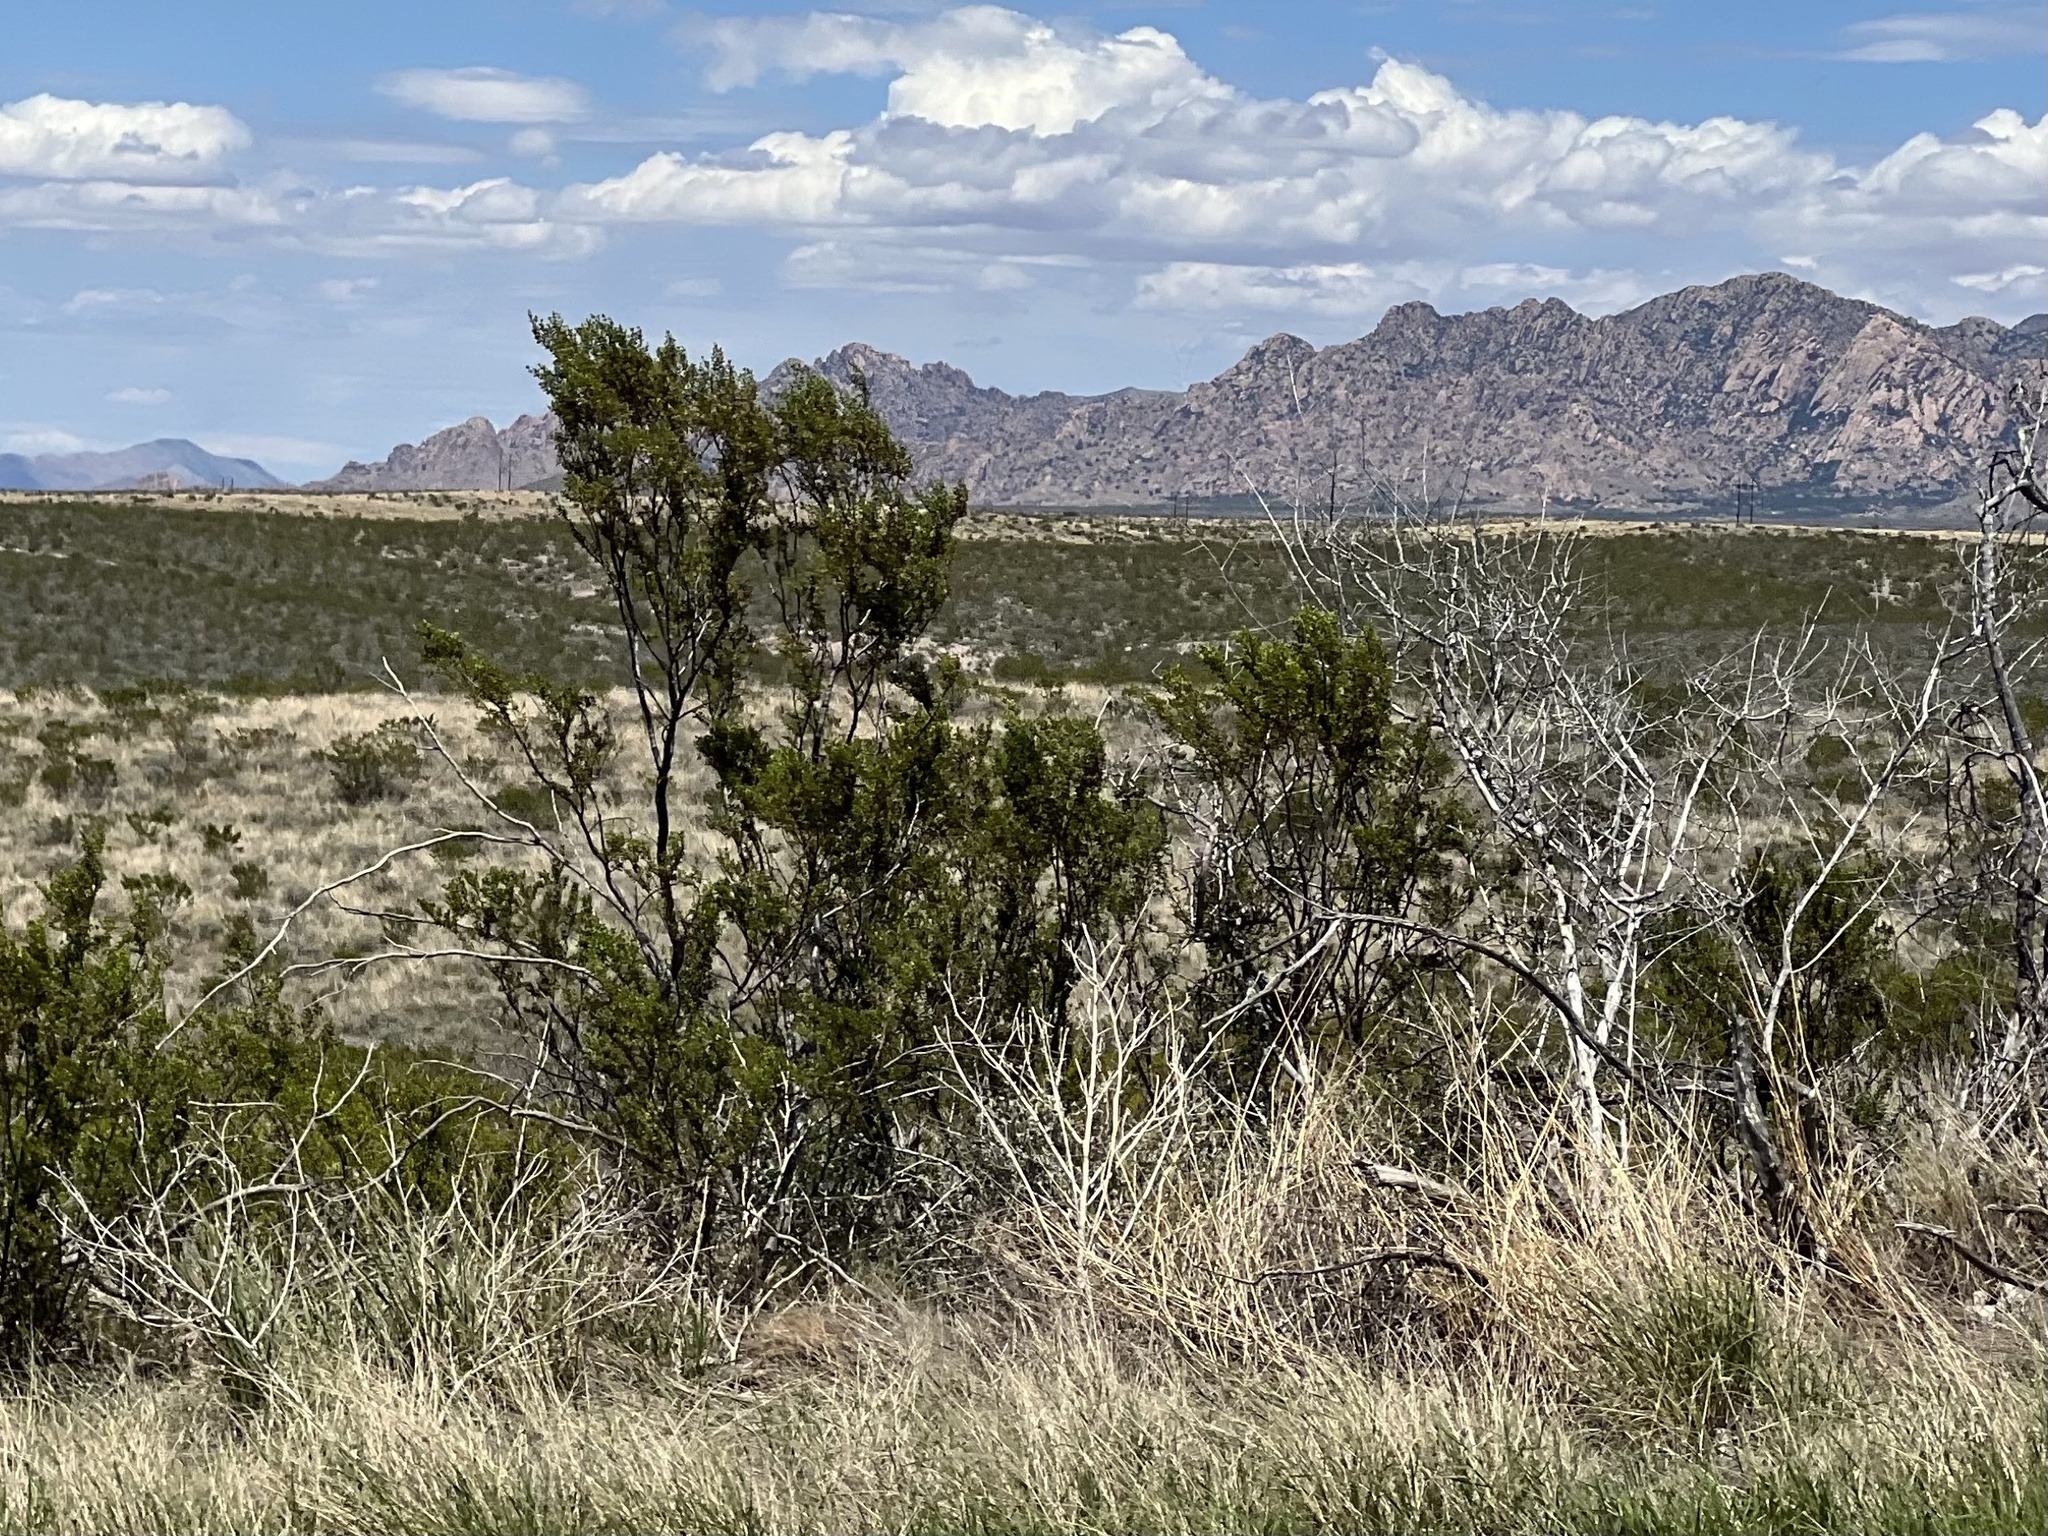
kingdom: Plantae
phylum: Tracheophyta
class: Magnoliopsida
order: Zygophyllales
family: Zygophyllaceae
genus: Larrea
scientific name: Larrea tridentata
